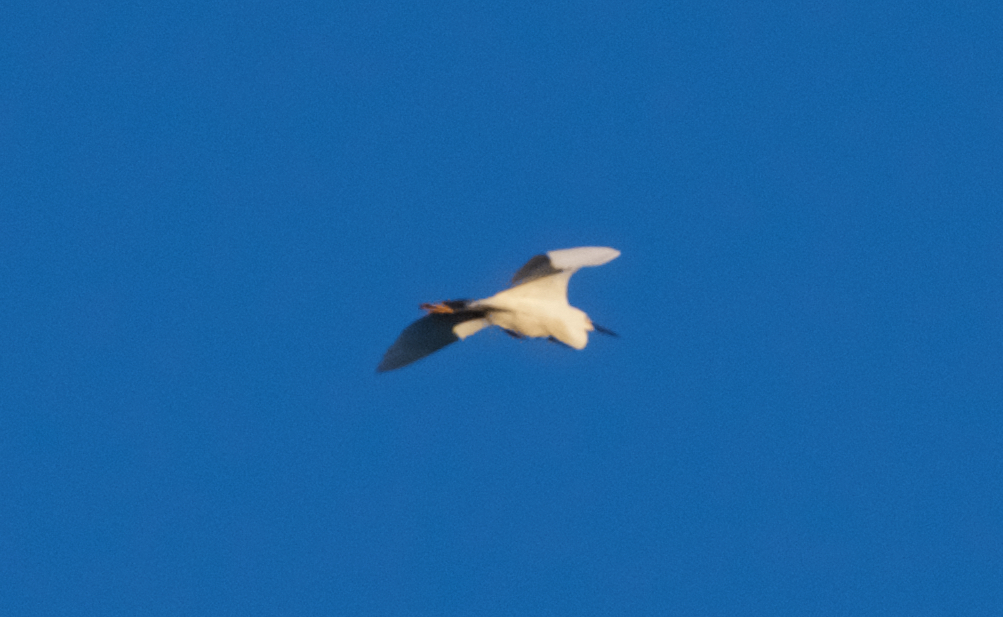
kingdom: Animalia
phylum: Chordata
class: Aves
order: Pelecaniformes
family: Ardeidae
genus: Egretta
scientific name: Egretta thula
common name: Snowy egret
